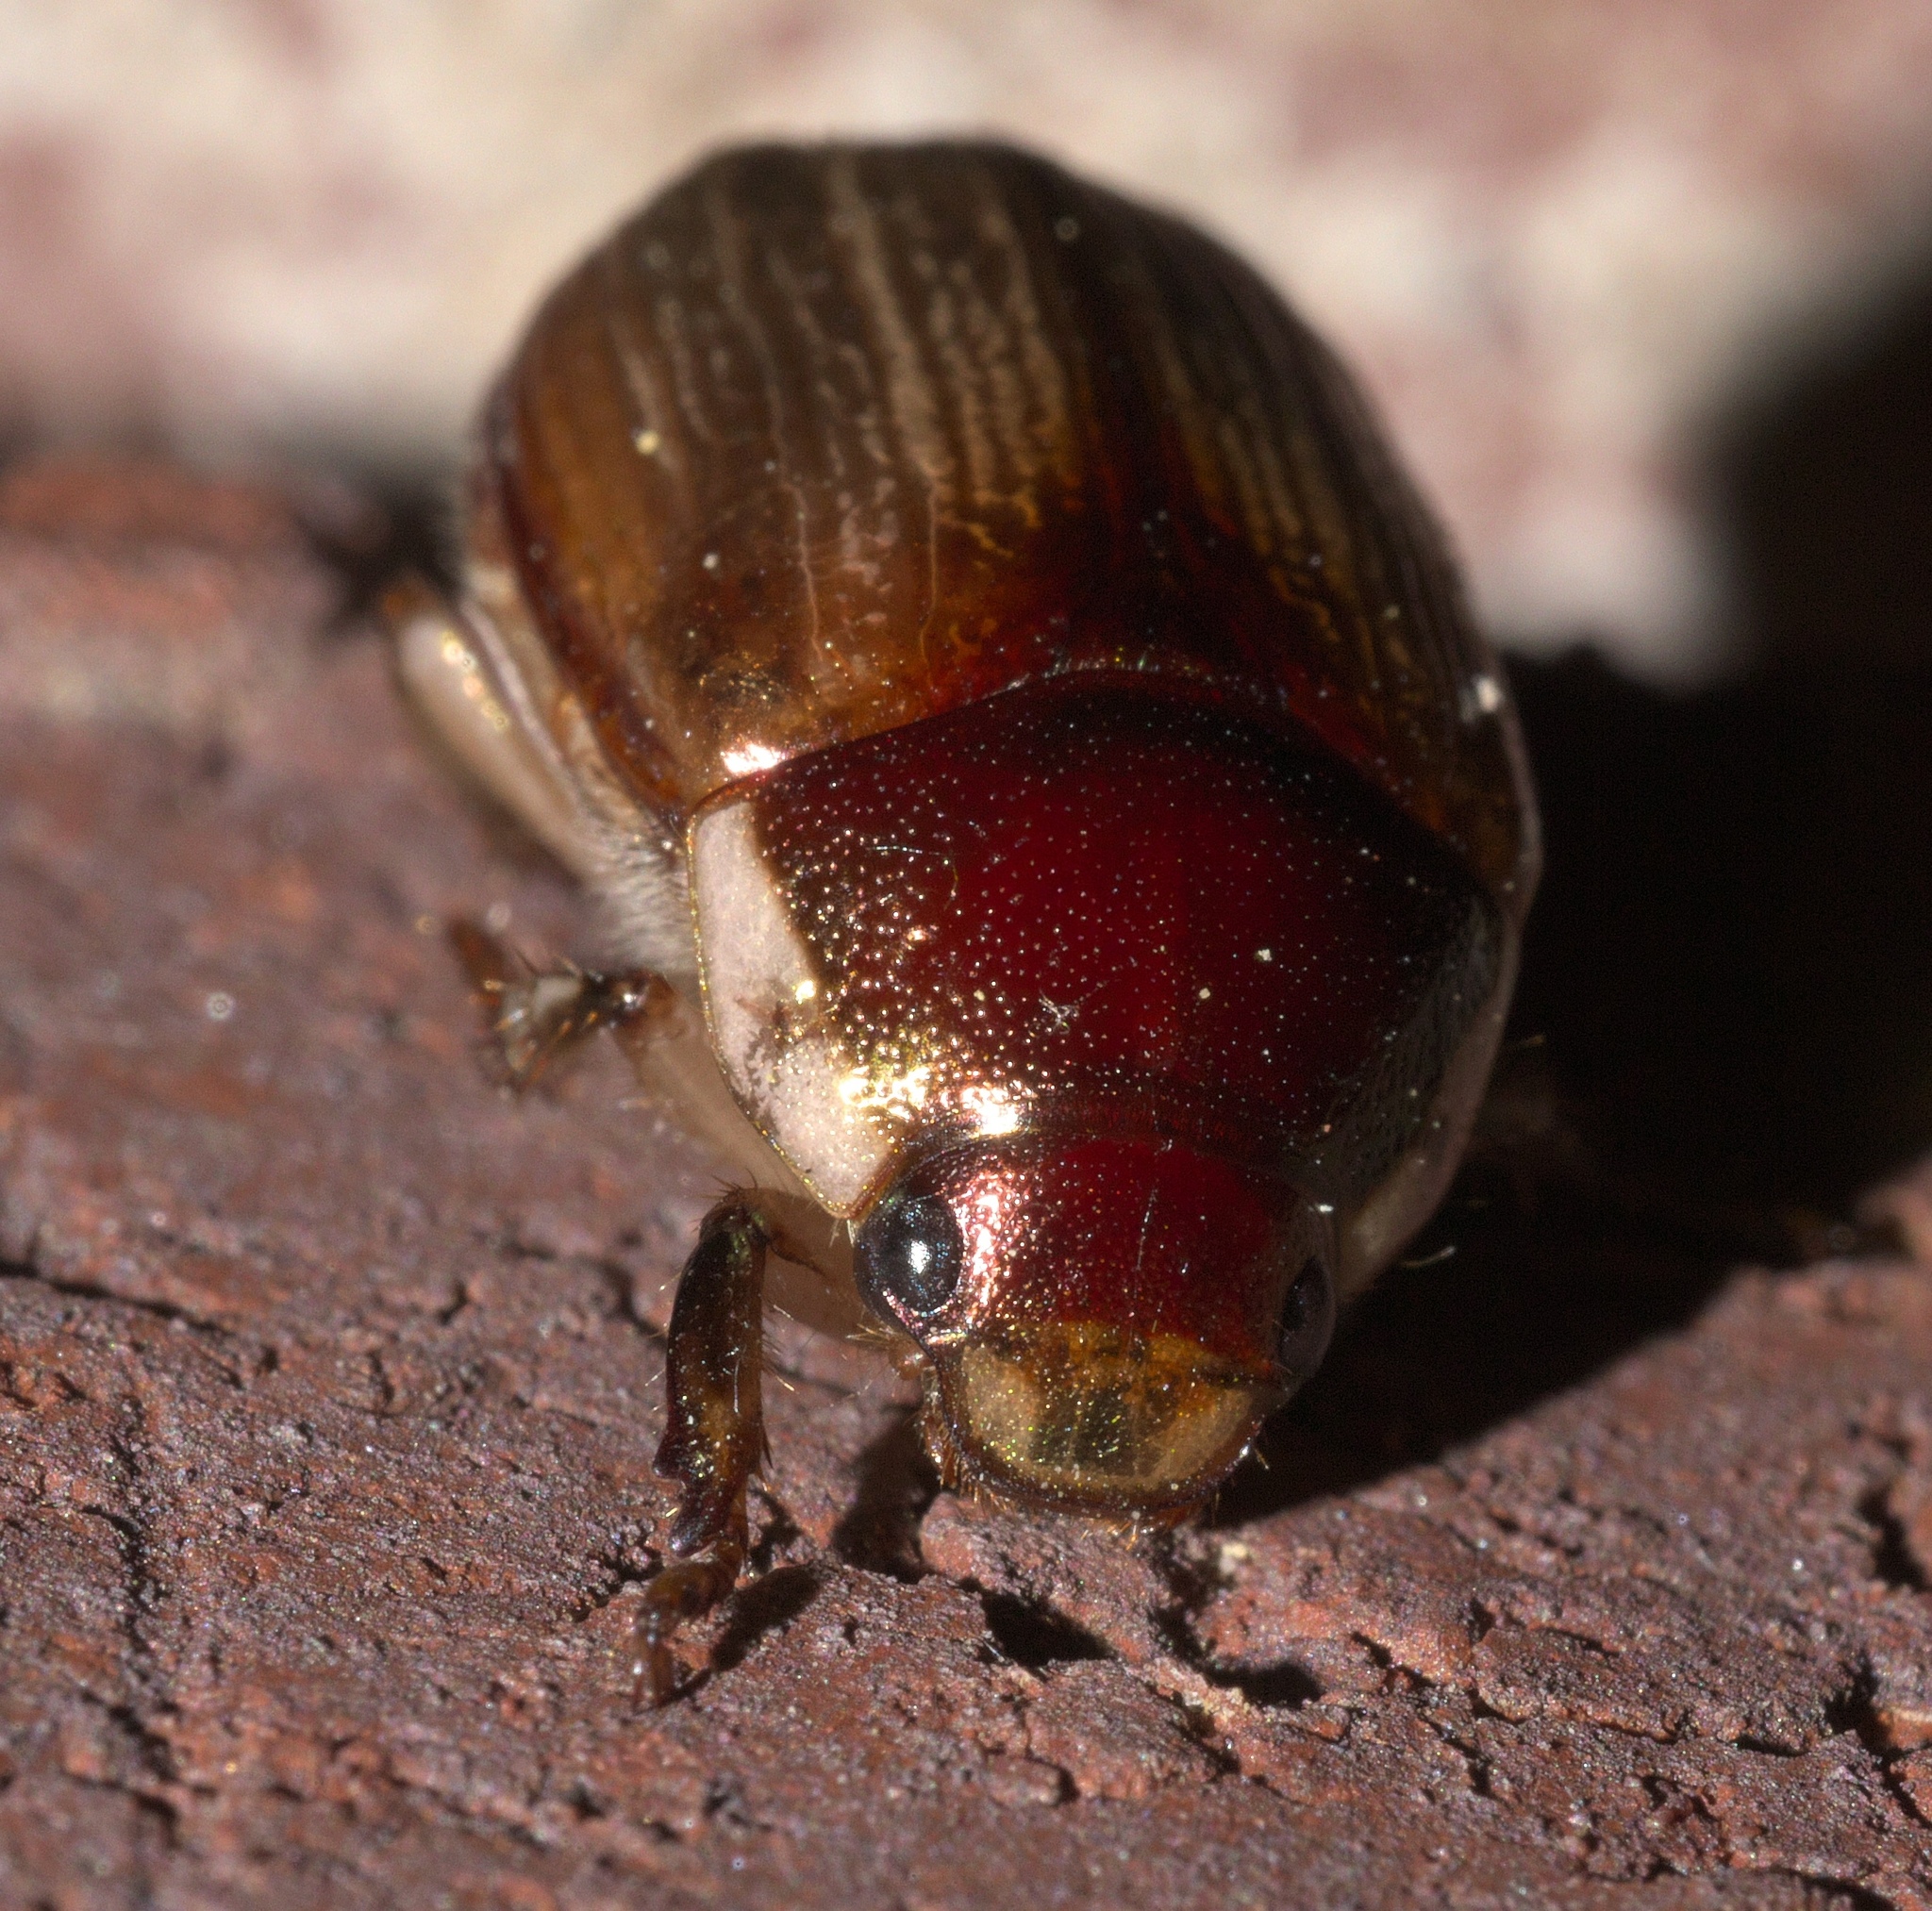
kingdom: Animalia
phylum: Arthropoda
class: Insecta
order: Coleoptera
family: Scarabaeidae
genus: Callistethus
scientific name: Callistethus marginatus
